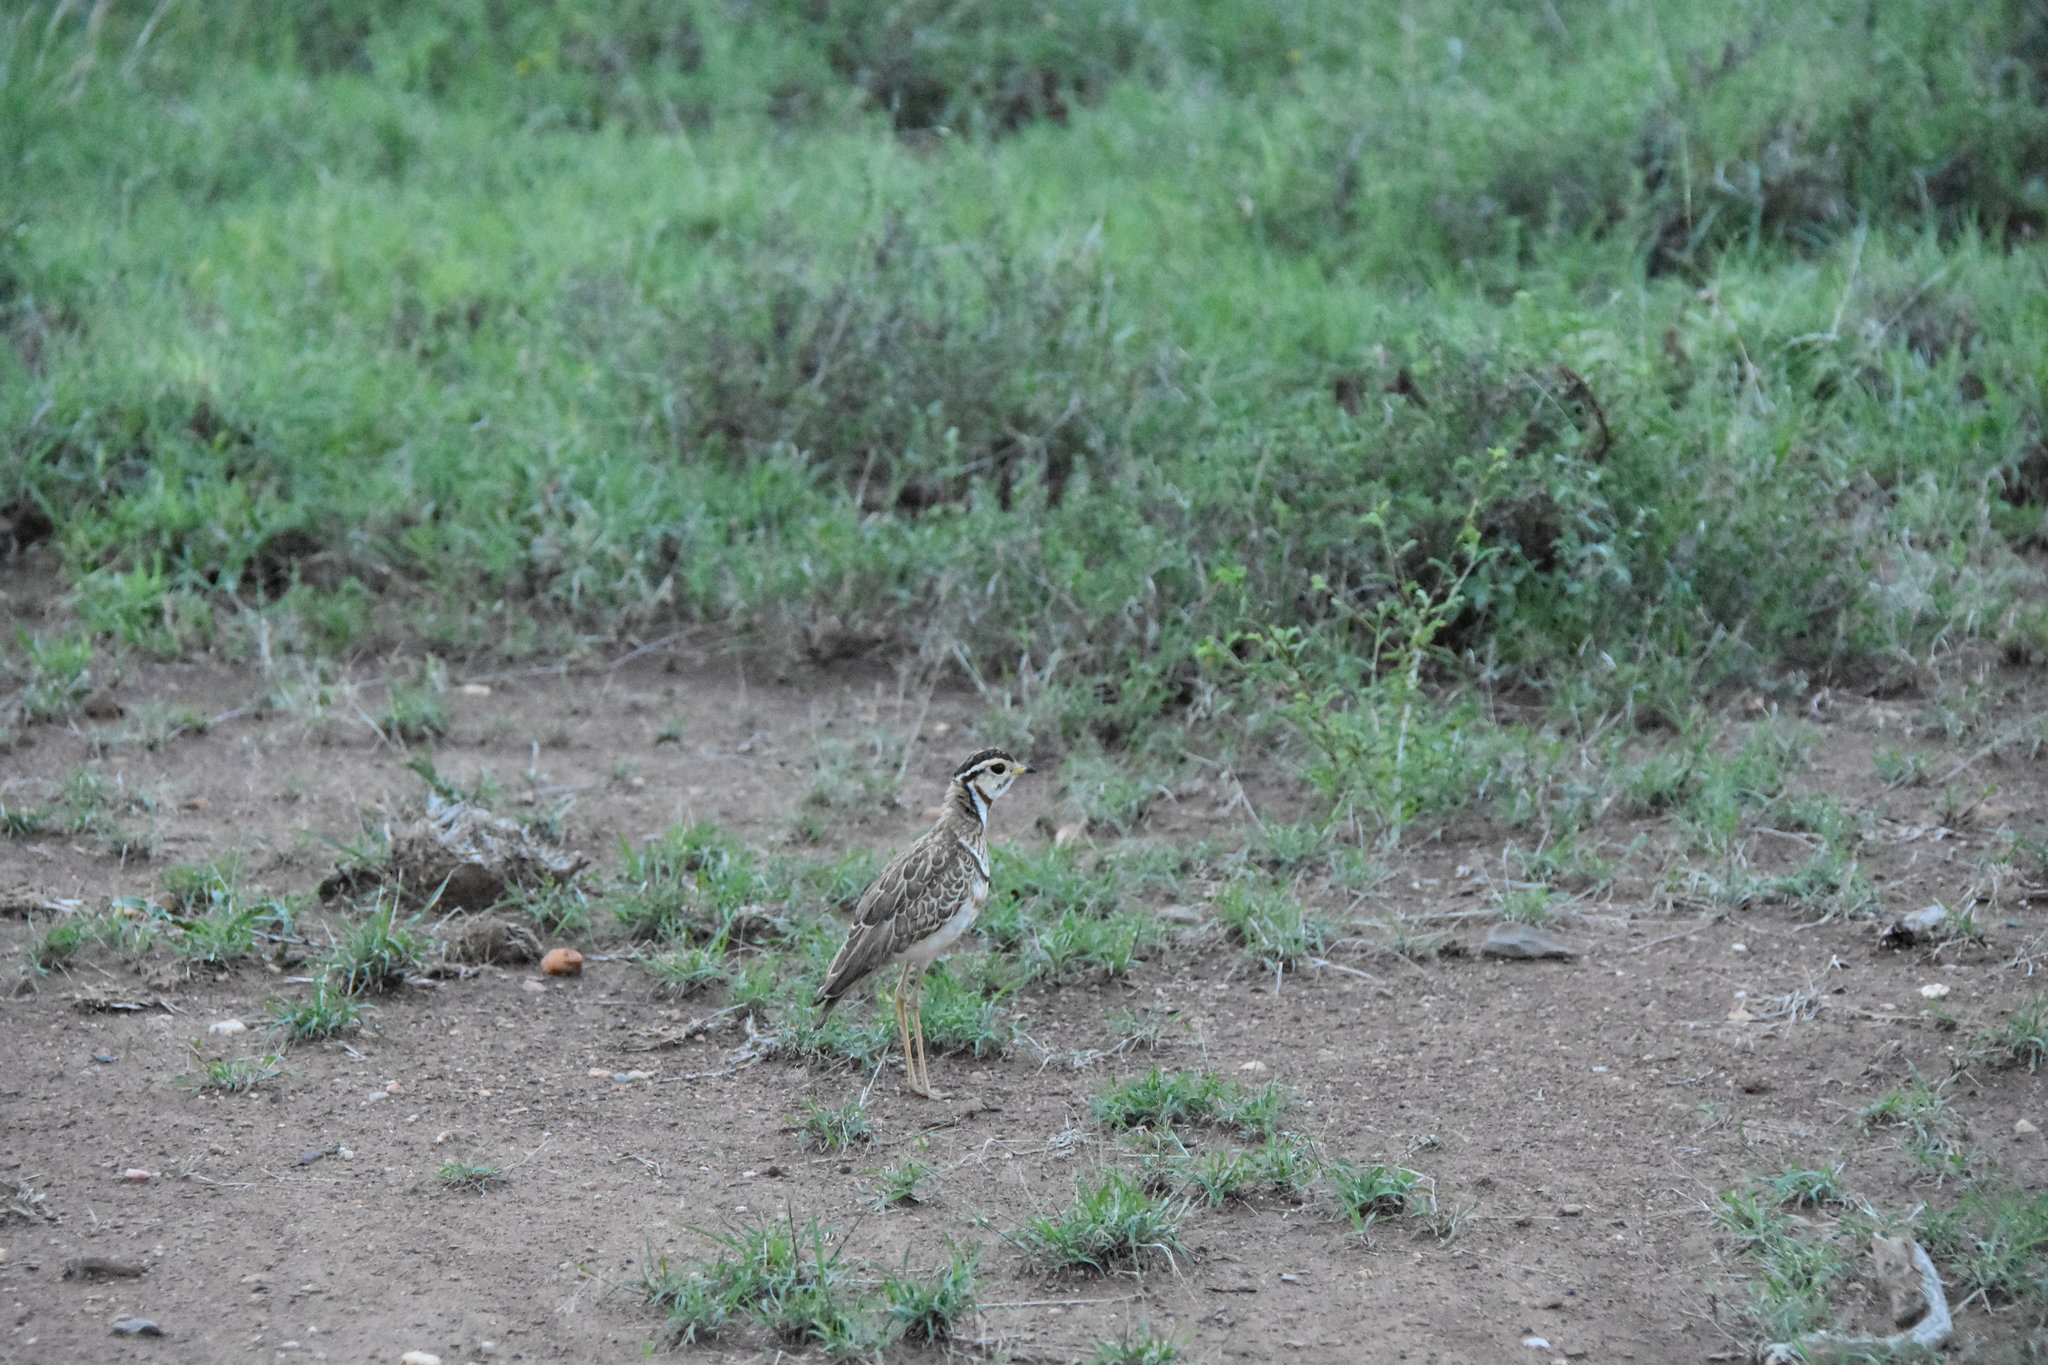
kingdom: Animalia
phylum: Chordata
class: Aves
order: Charadriiformes
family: Glareolidae
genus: Rhinoptilus
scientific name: Rhinoptilus cinctus
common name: Three-banded courser
